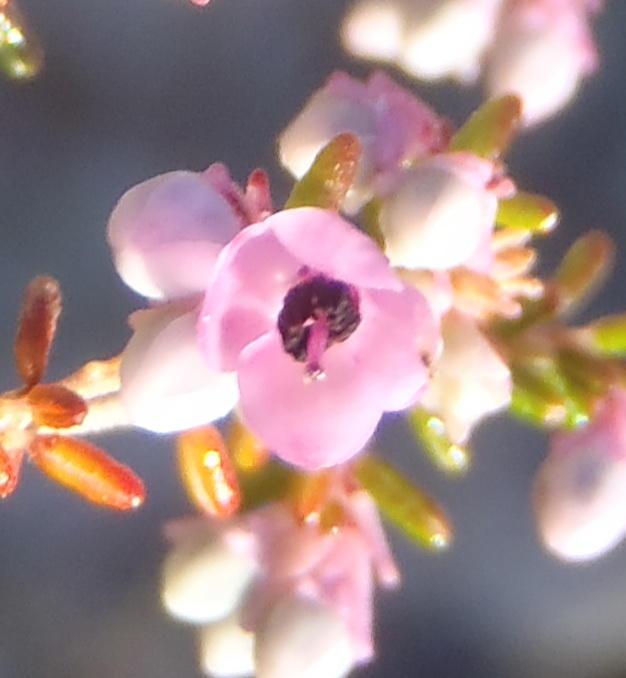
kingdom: Plantae
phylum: Tracheophyta
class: Magnoliopsida
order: Ericales
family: Ericaceae
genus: Erica
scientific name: Erica melanthera
